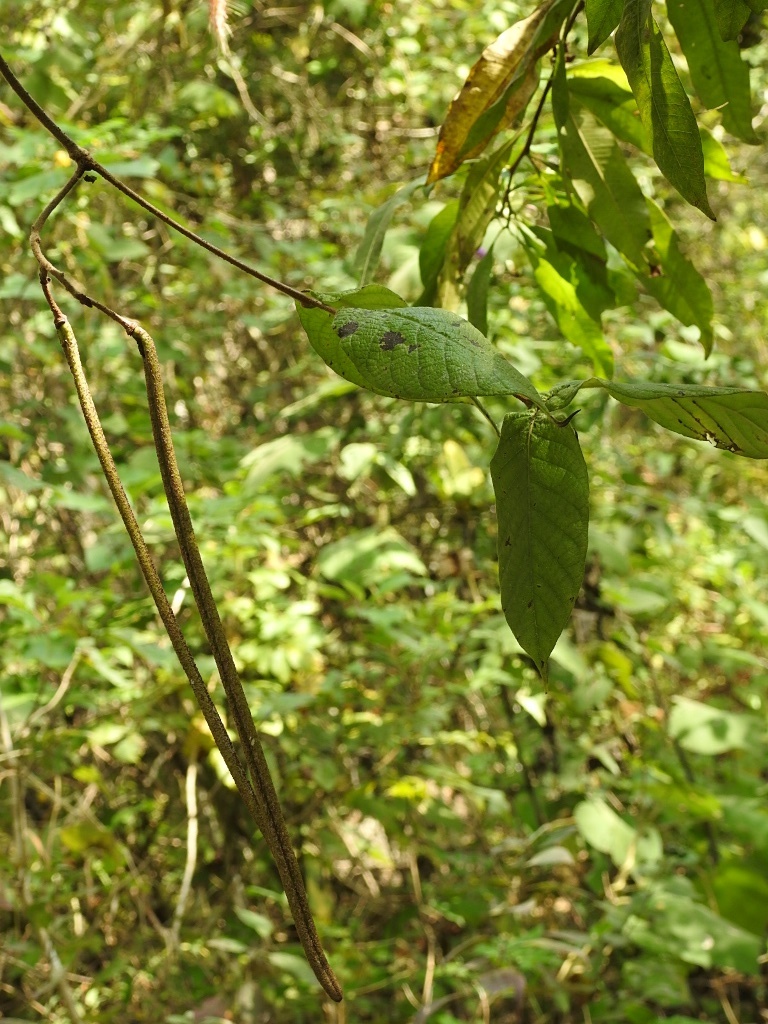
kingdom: Plantae
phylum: Tracheophyta
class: Magnoliopsida
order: Gentianales
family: Apocynaceae
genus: Mandevilla
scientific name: Mandevilla subsessilis
